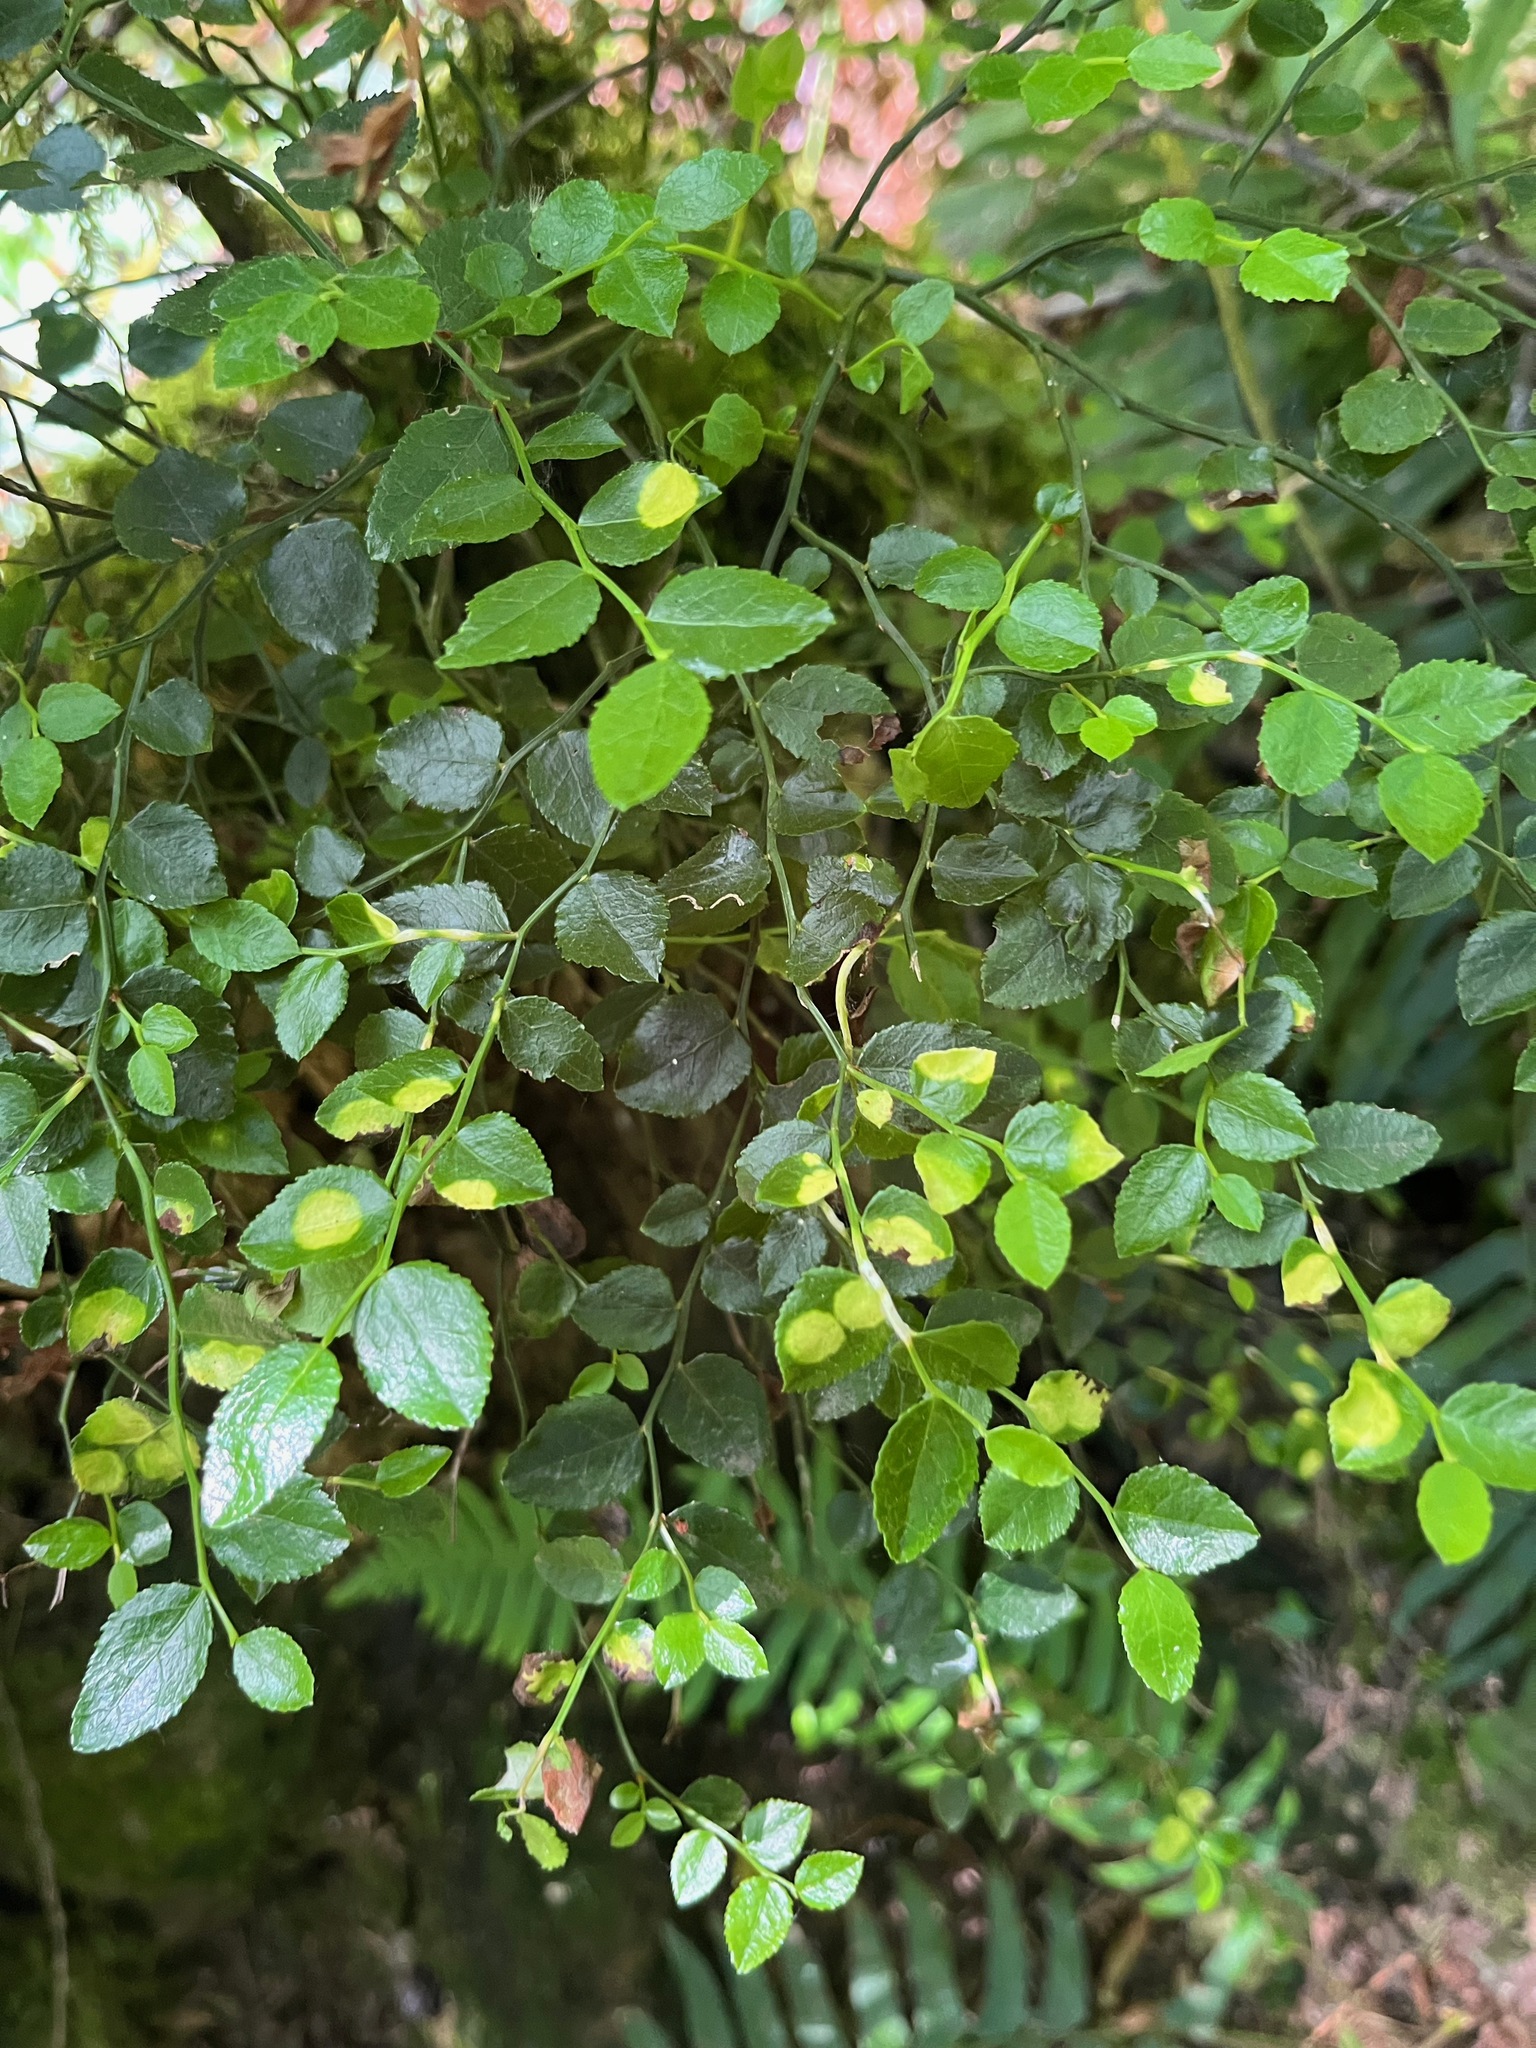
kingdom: Plantae
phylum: Tracheophyta
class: Magnoliopsida
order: Ericales
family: Ericaceae
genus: Vaccinium
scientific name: Vaccinium parvifolium
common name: Red-huckleberry
